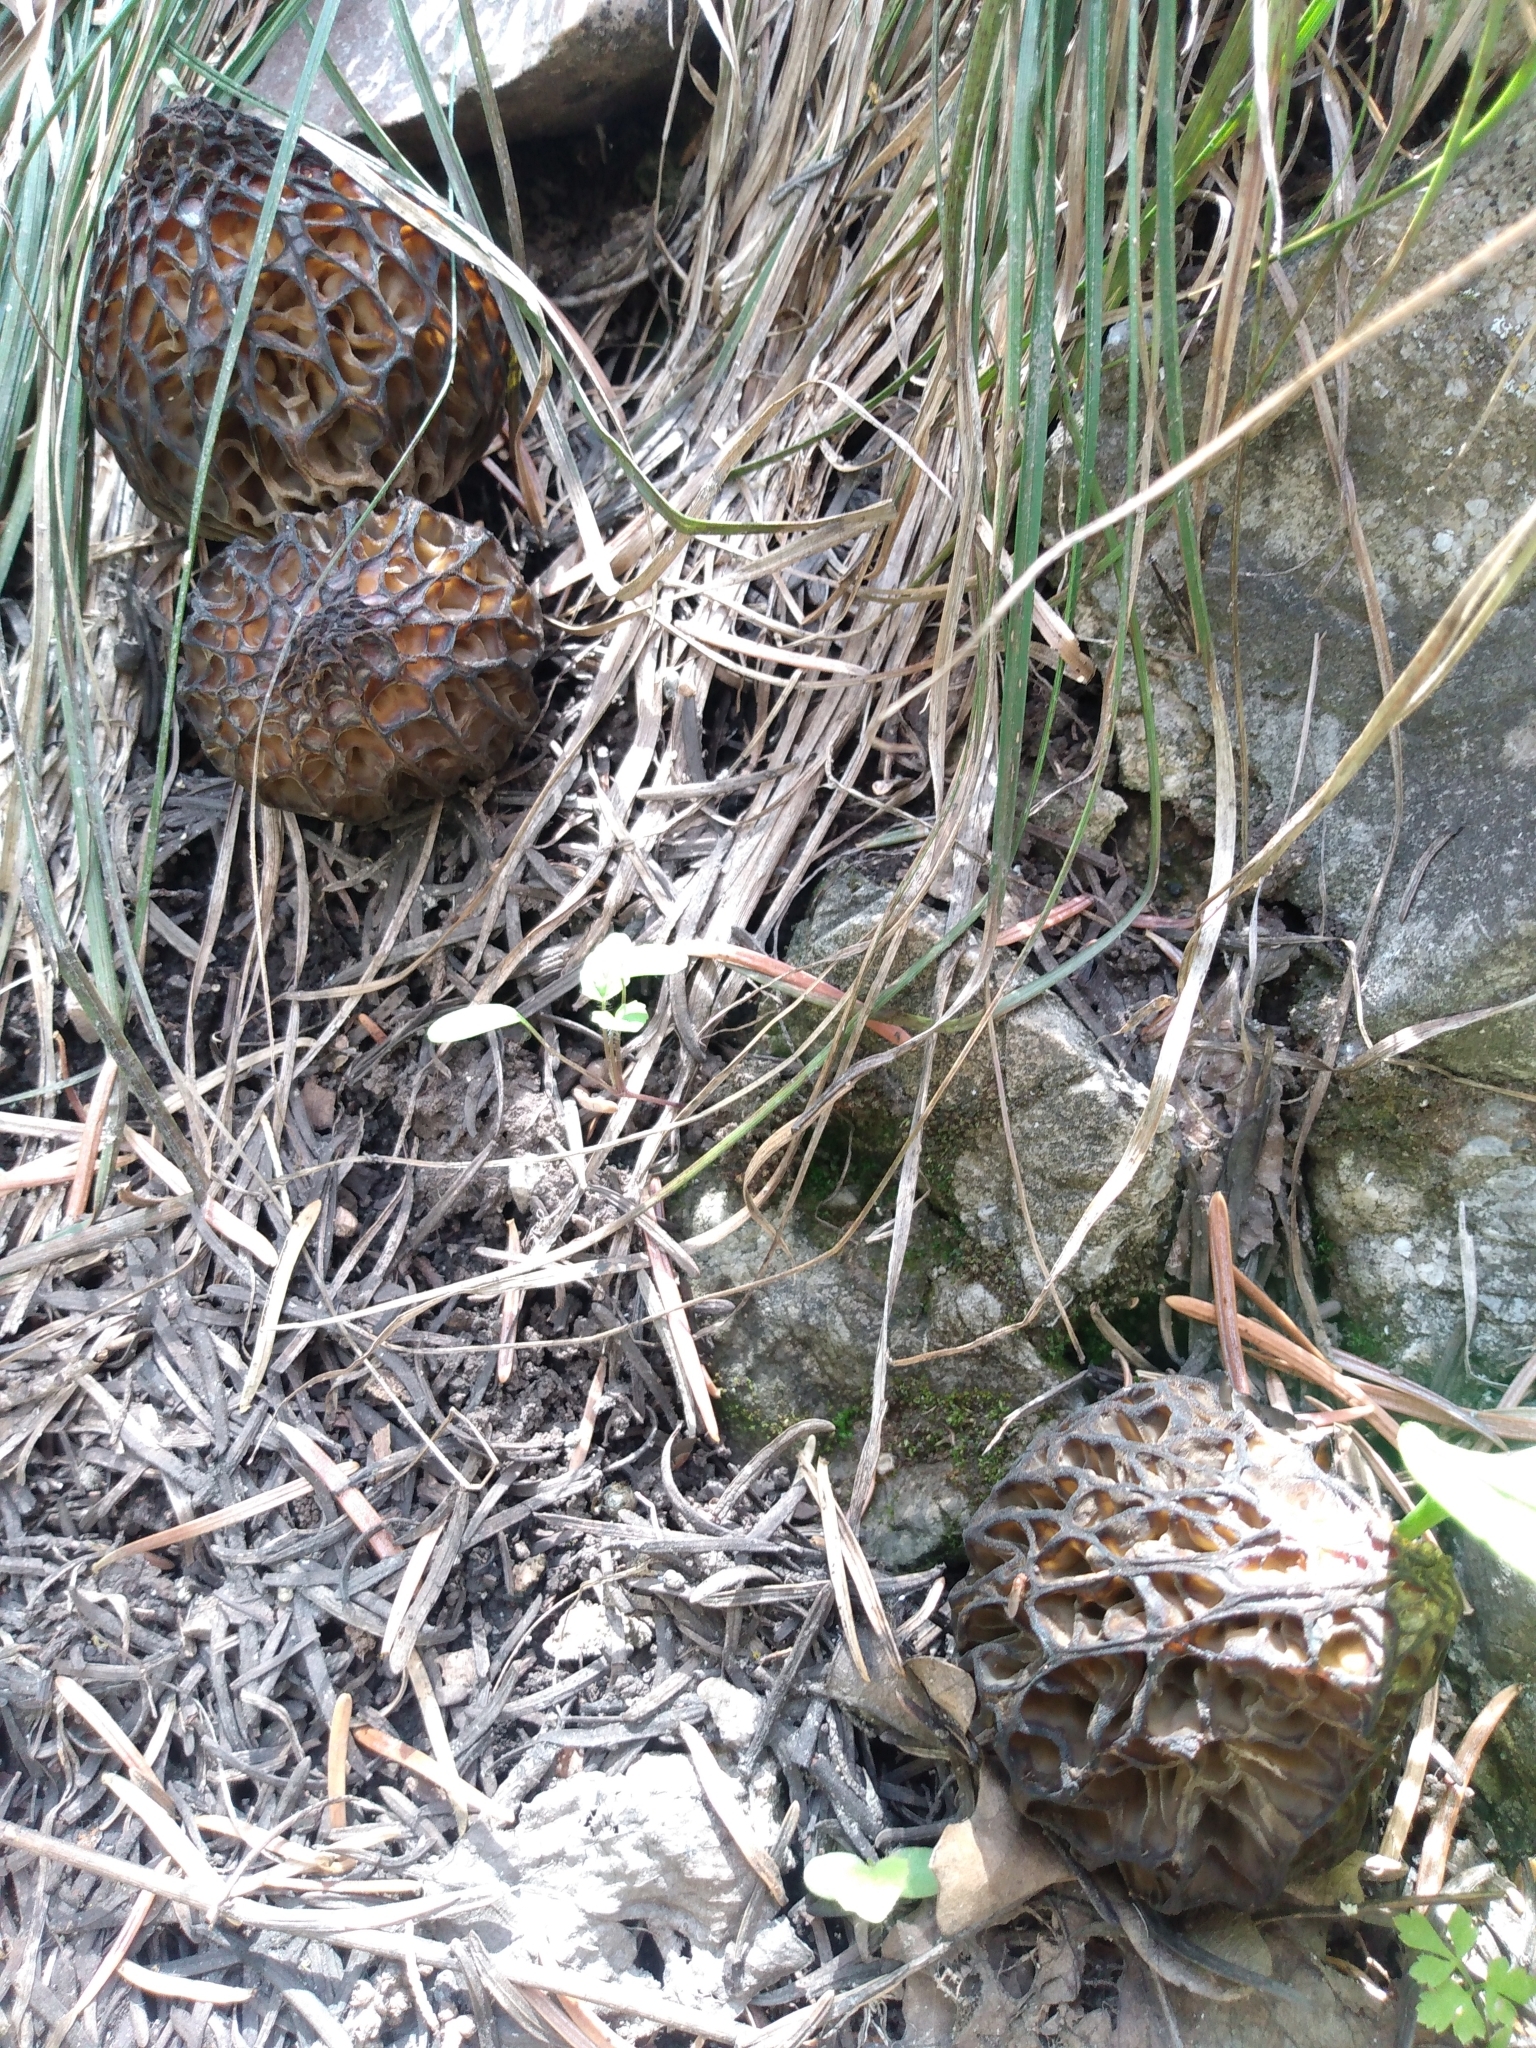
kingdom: Fungi
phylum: Ascomycota
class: Pezizomycetes
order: Pezizales
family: Morchellaceae
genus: Morchella
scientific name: Morchella snyderi
